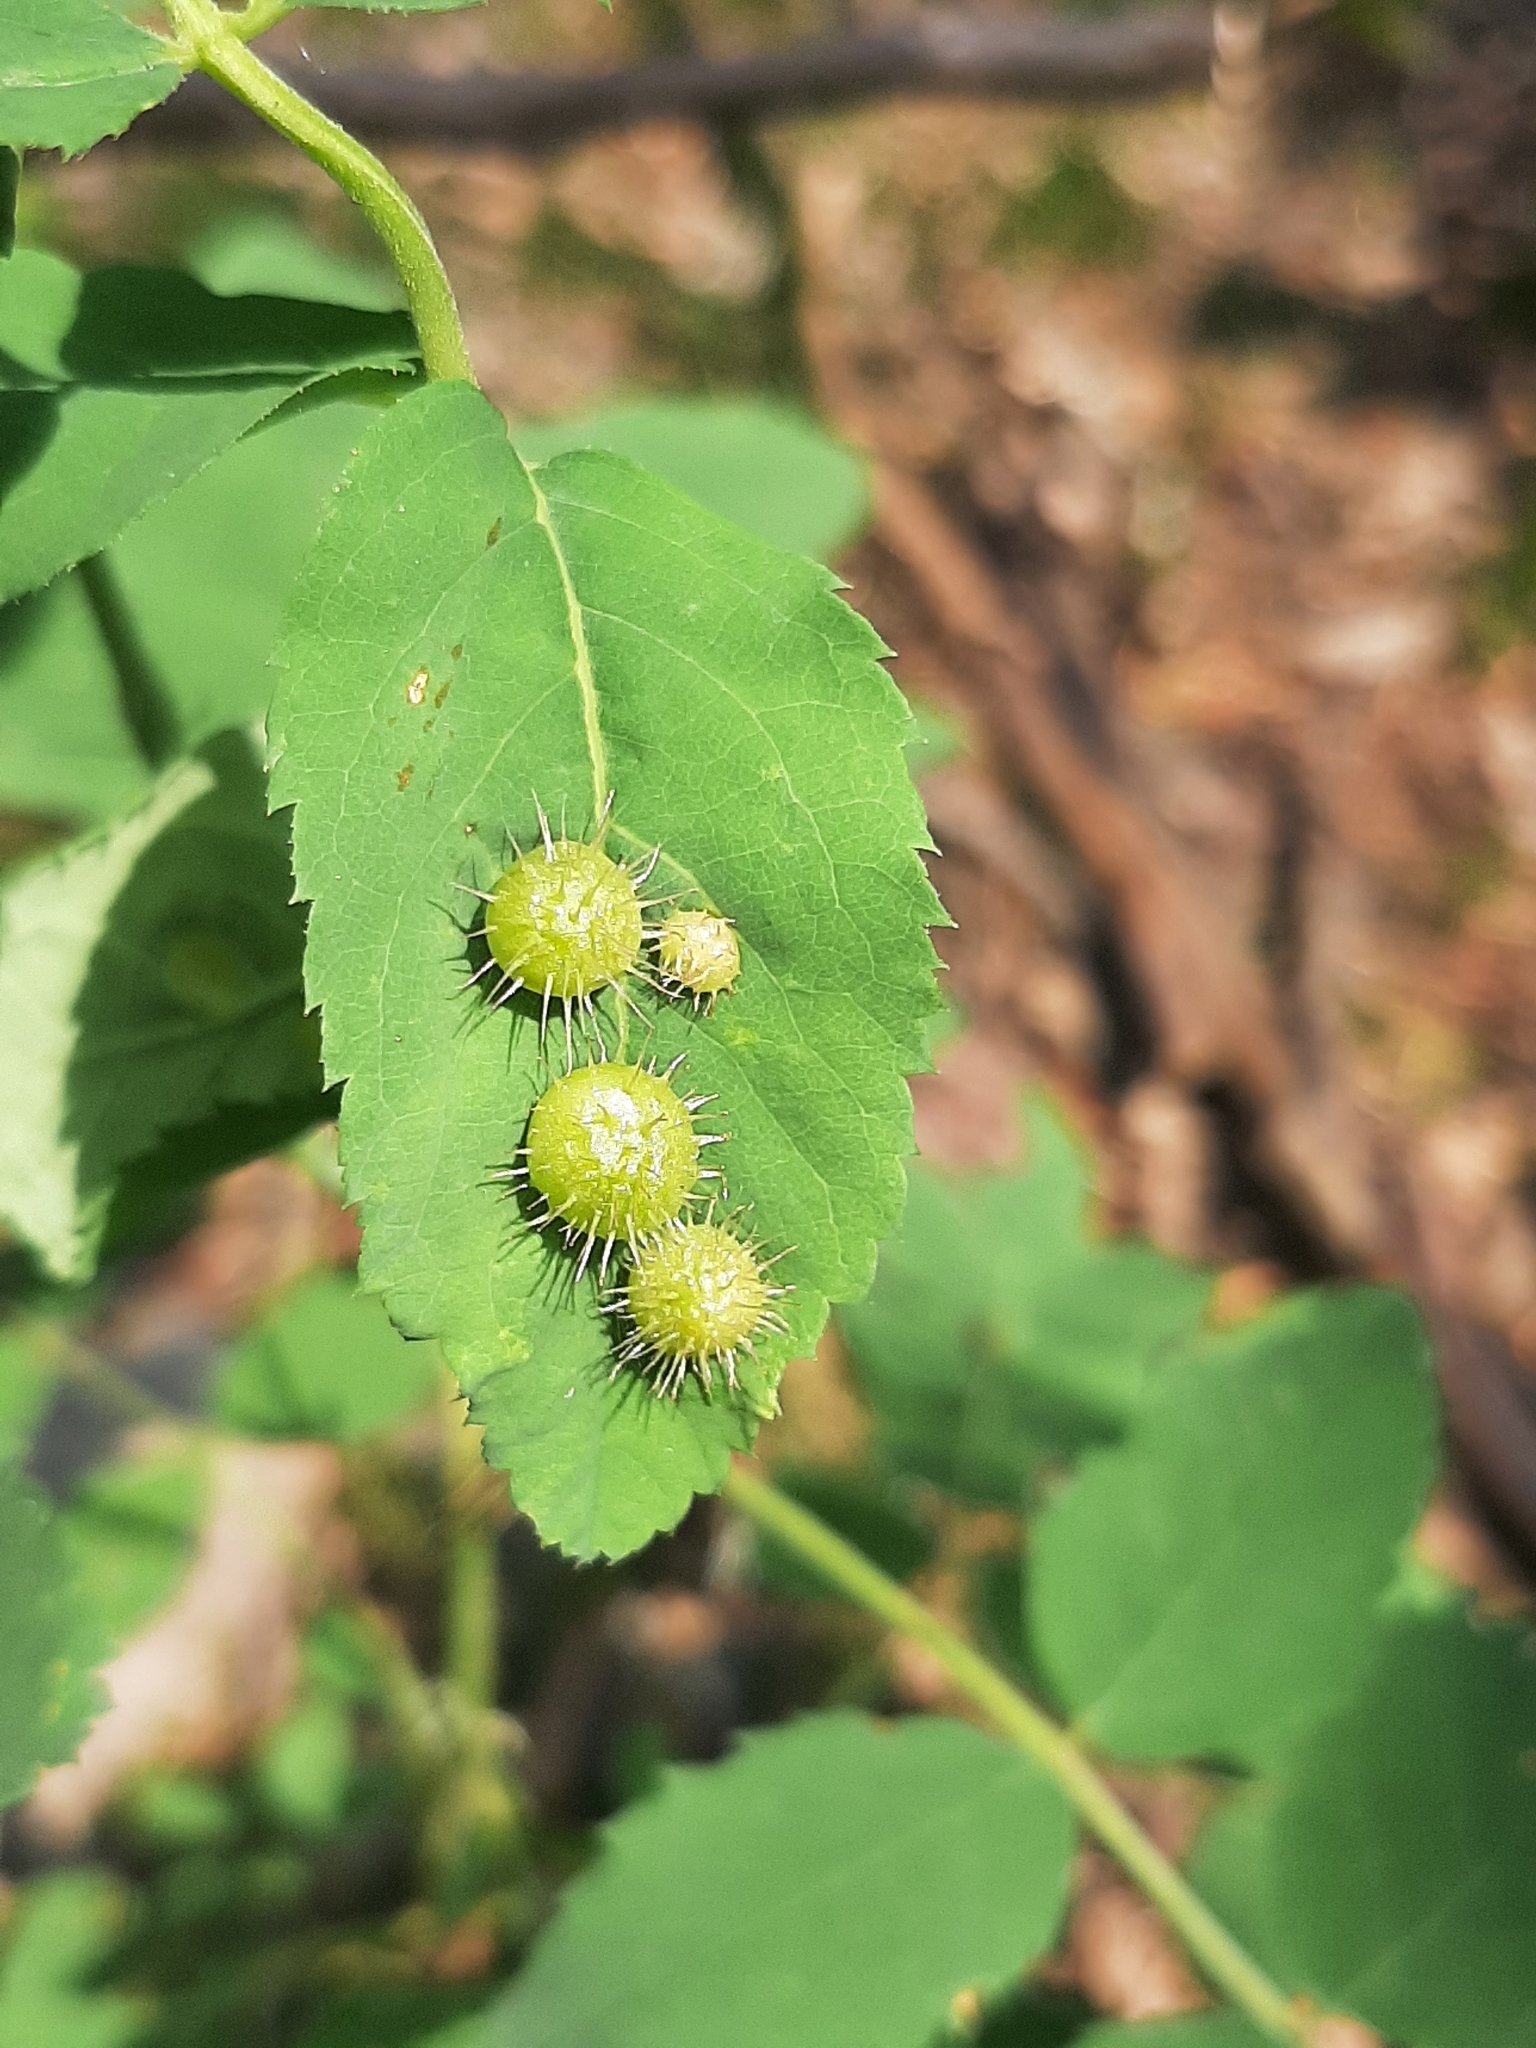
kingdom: Animalia
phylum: Arthropoda
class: Insecta
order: Hymenoptera
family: Cynipidae
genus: Diplolepis
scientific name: Diplolepis polita
